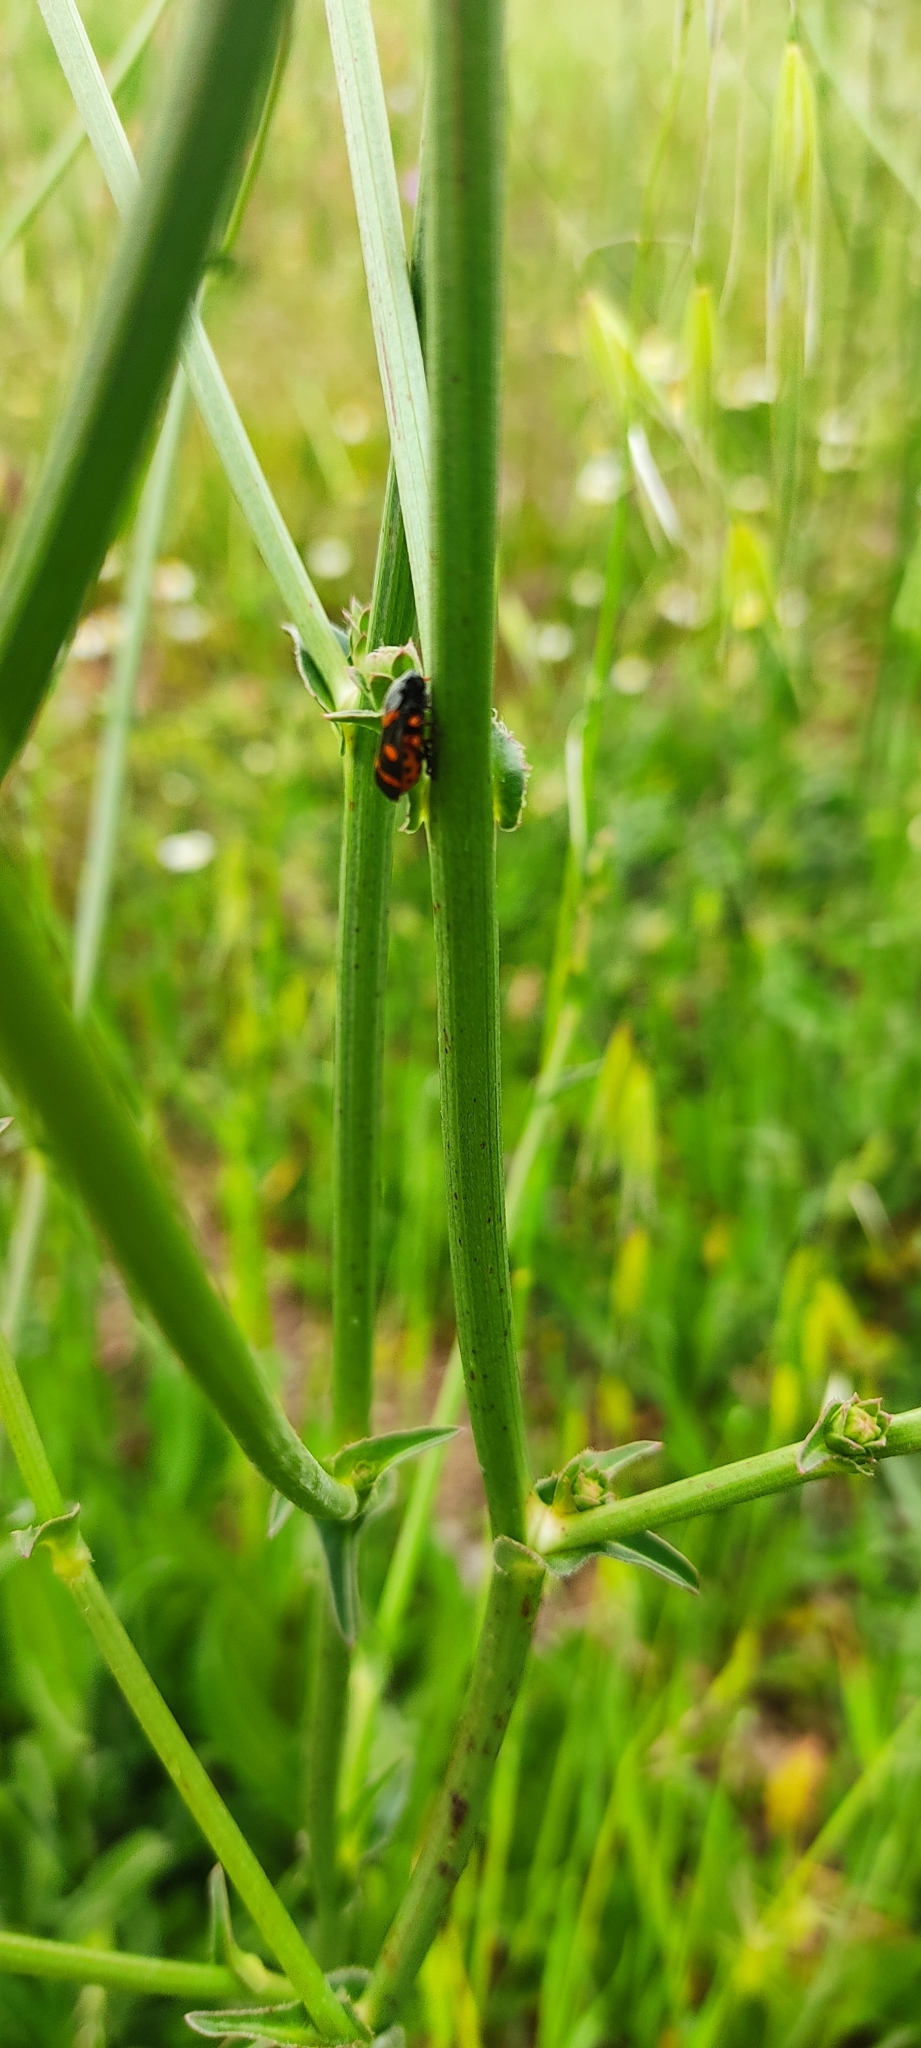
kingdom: Animalia
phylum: Arthropoda
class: Insecta
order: Hemiptera
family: Cercopidae
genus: Cercopis
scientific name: Cercopis intermedia
